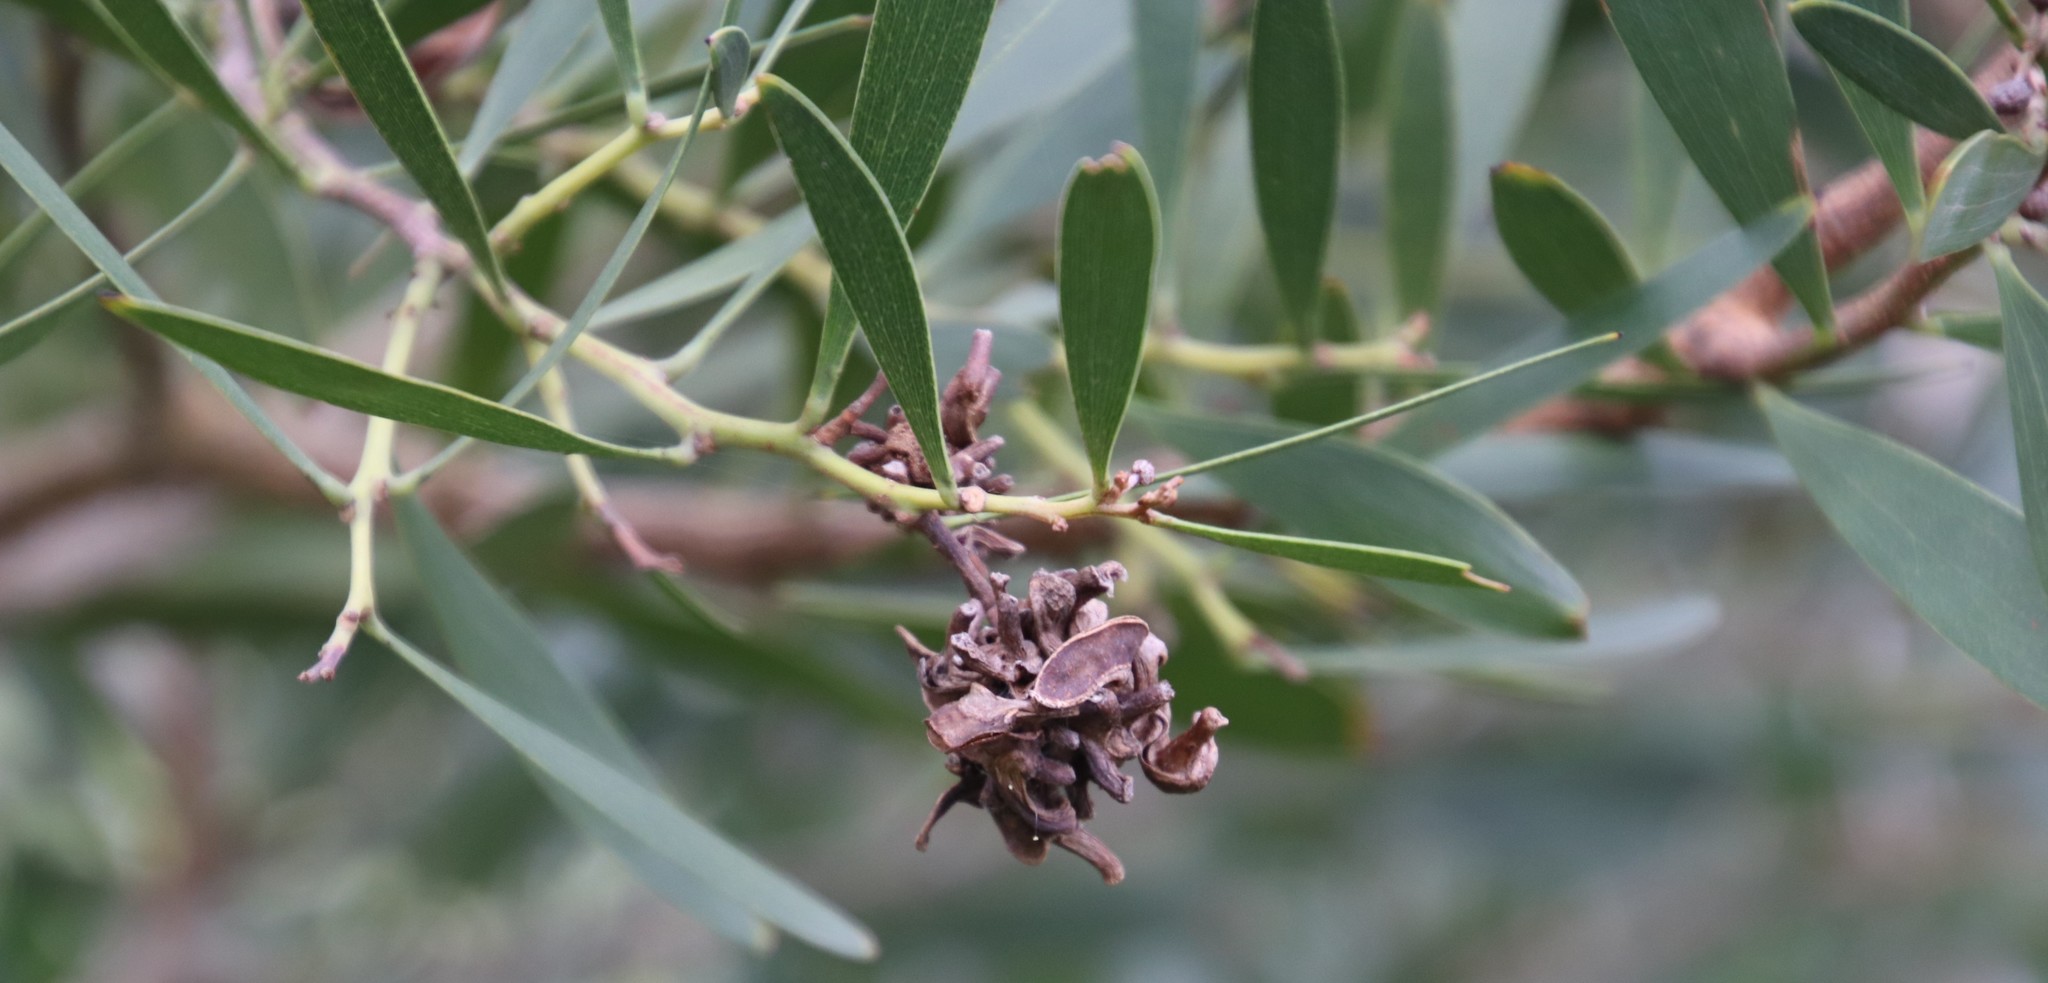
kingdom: Plantae
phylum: Tracheophyta
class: Magnoliopsida
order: Fabales
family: Fabaceae
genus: Acacia
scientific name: Acacia melanoxylon
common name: Blackwood
